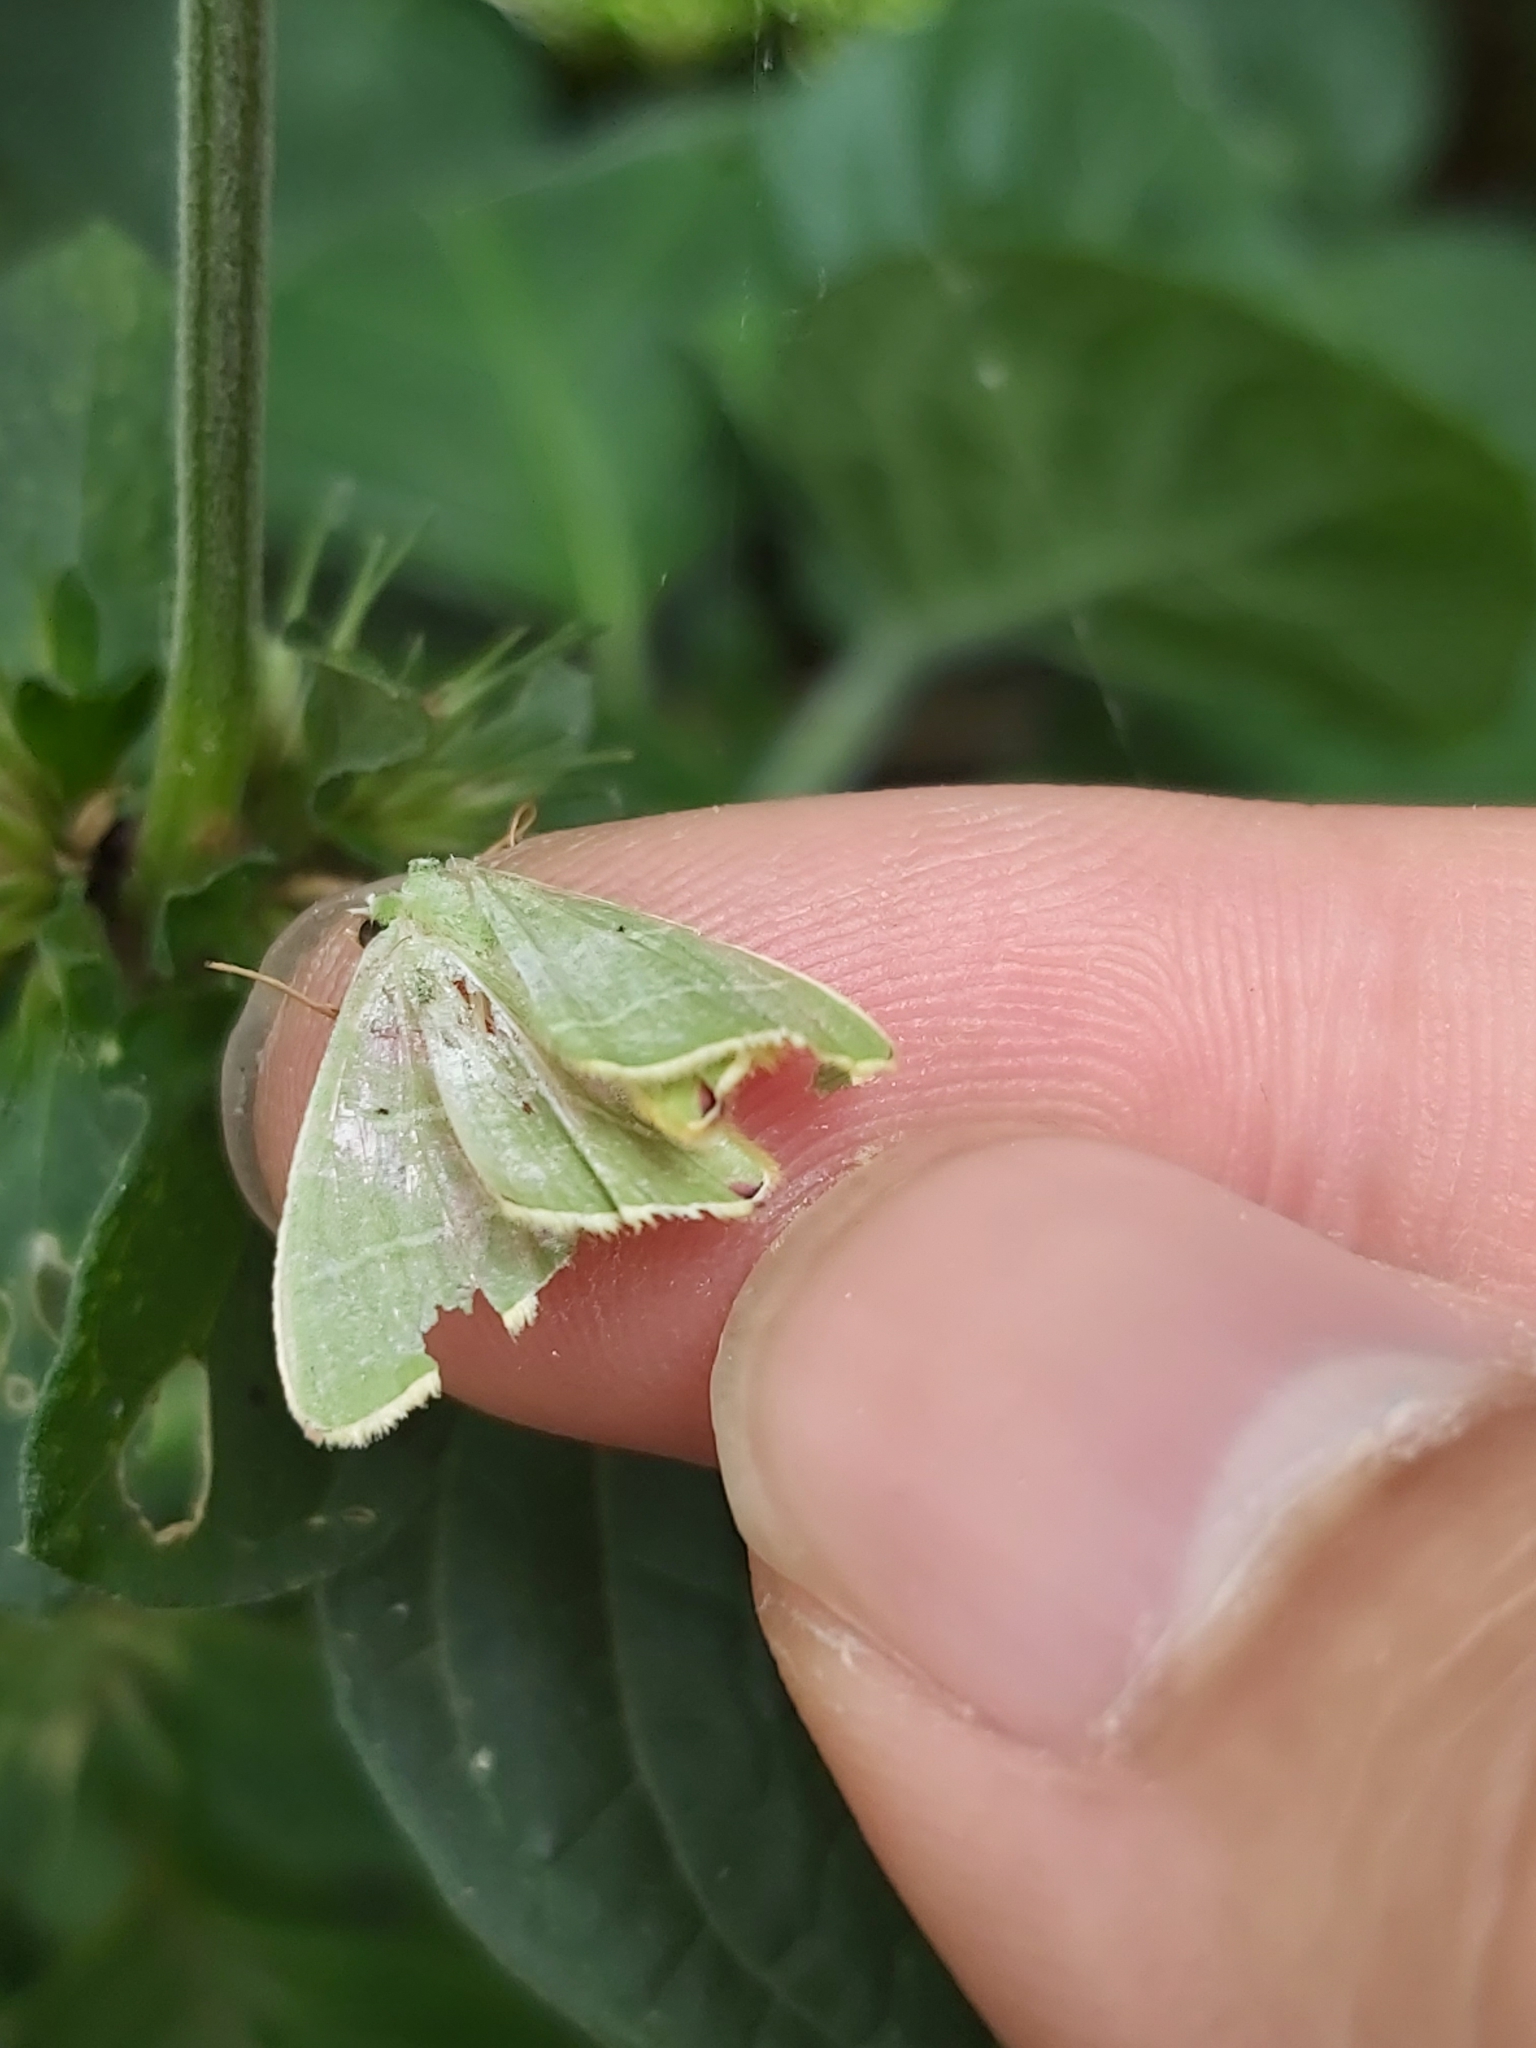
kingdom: Animalia
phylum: Arthropoda
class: Insecta
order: Lepidoptera
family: Geometridae
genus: Urolitha
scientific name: Urolitha bipunctifera
